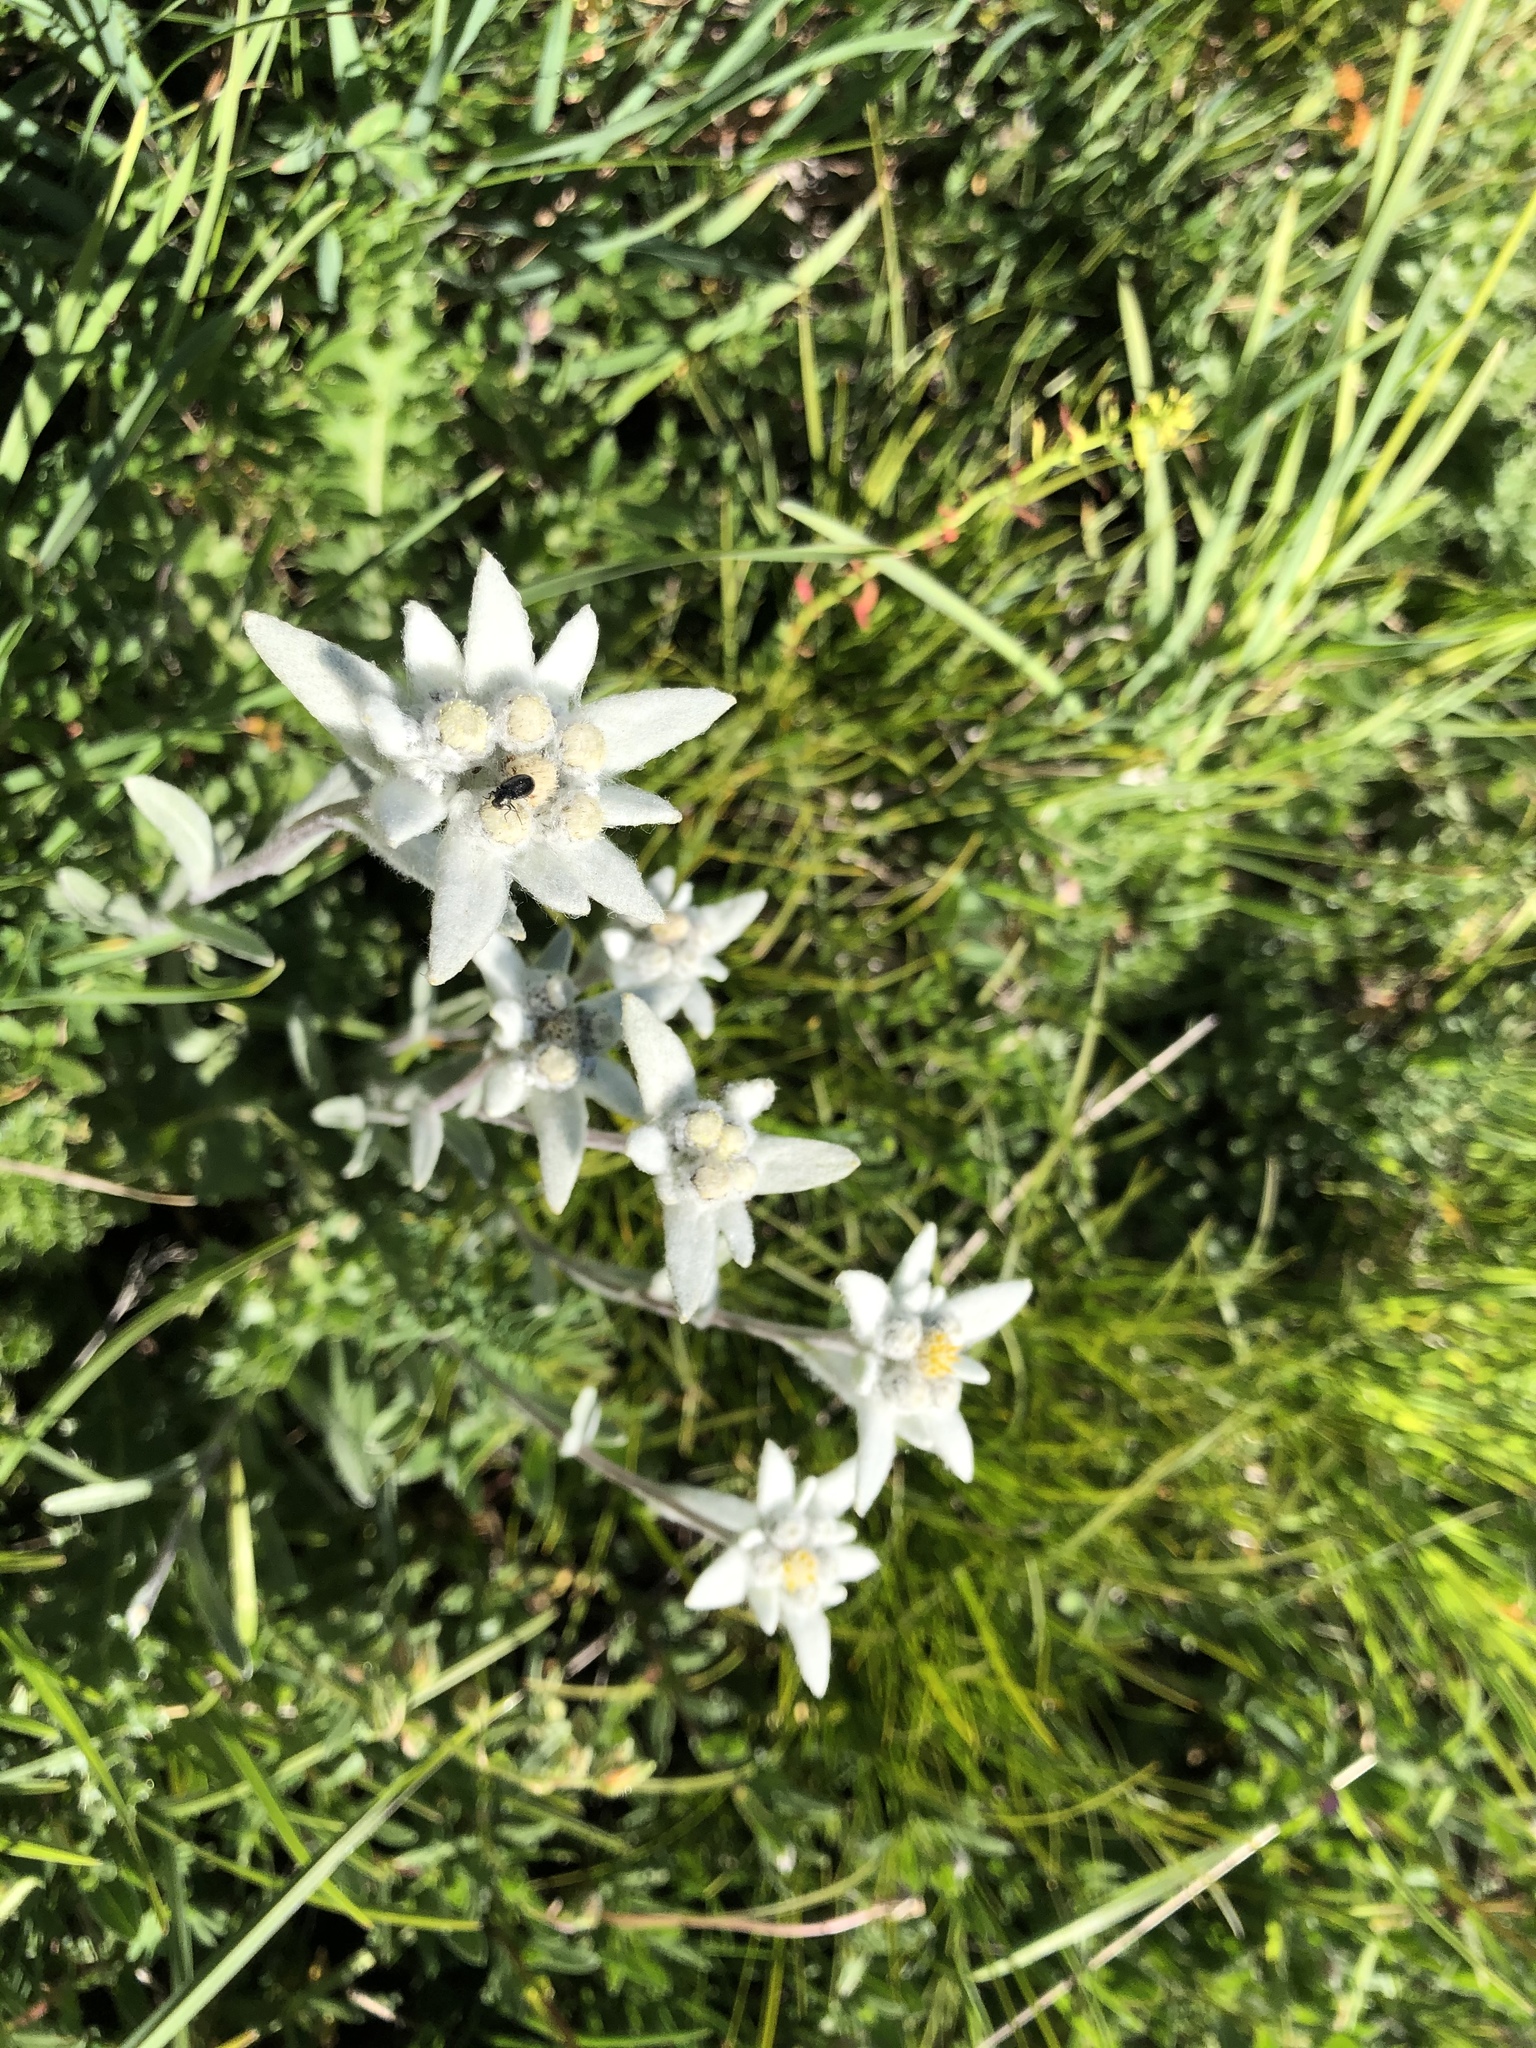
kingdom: Plantae
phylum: Tracheophyta
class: Magnoliopsida
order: Asterales
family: Asteraceae
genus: Leontopodium
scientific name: Leontopodium nivale
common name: Edelweiss
